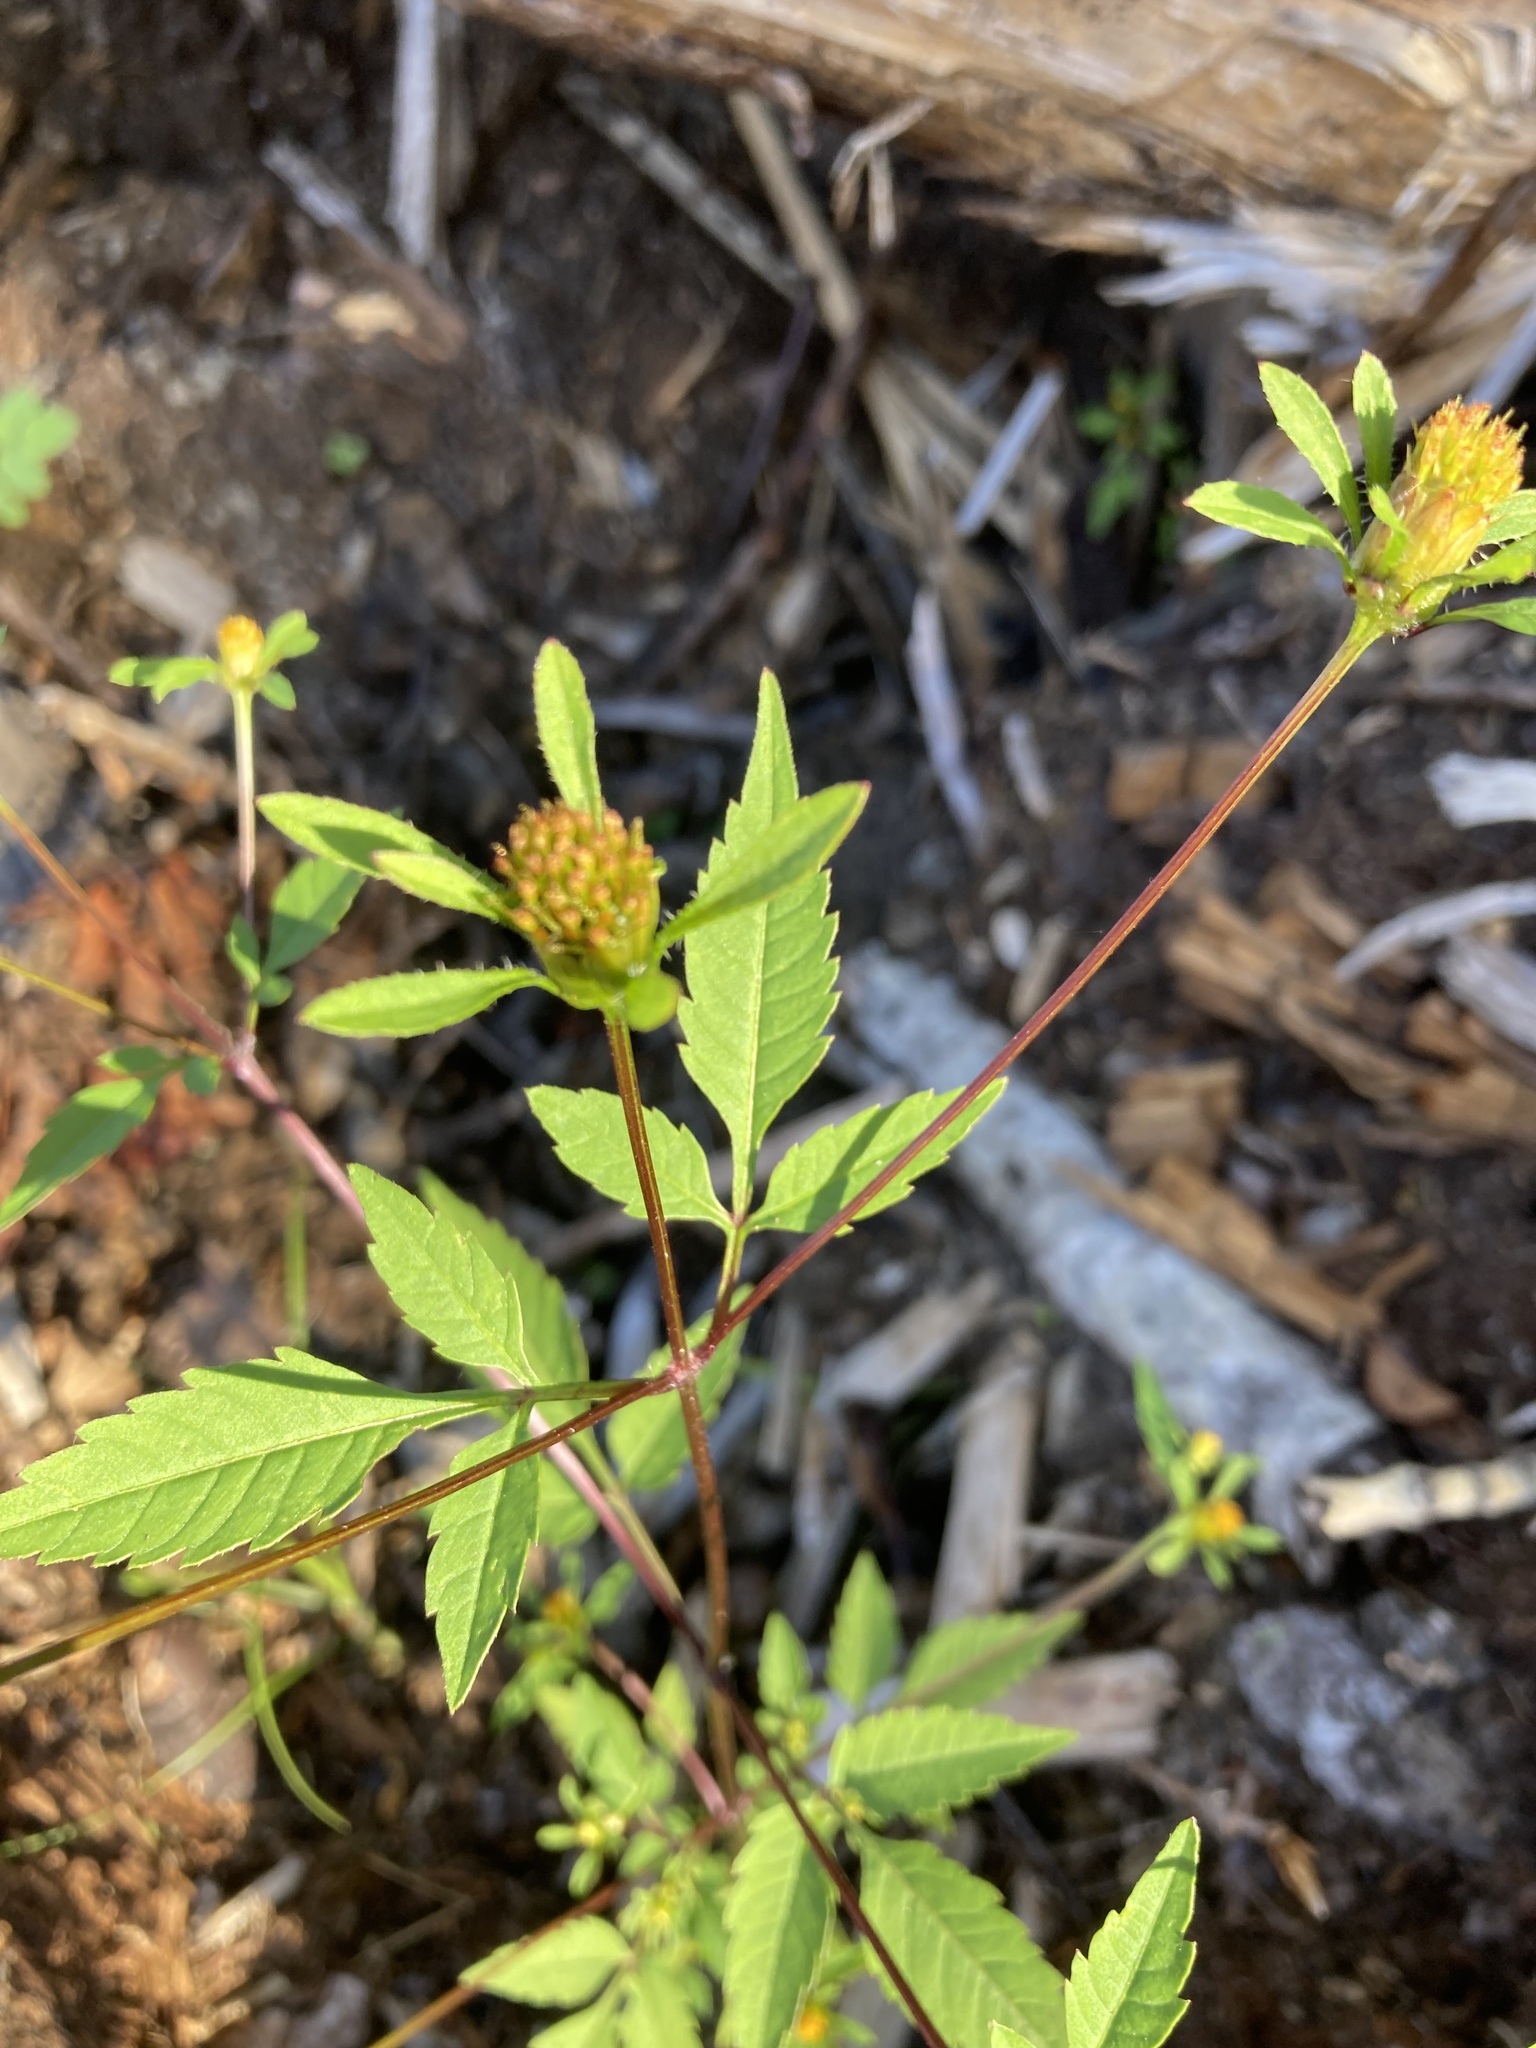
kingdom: Plantae
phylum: Tracheophyta
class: Magnoliopsida
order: Asterales
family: Asteraceae
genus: Bidens
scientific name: Bidens frondosa
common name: Beggarticks
